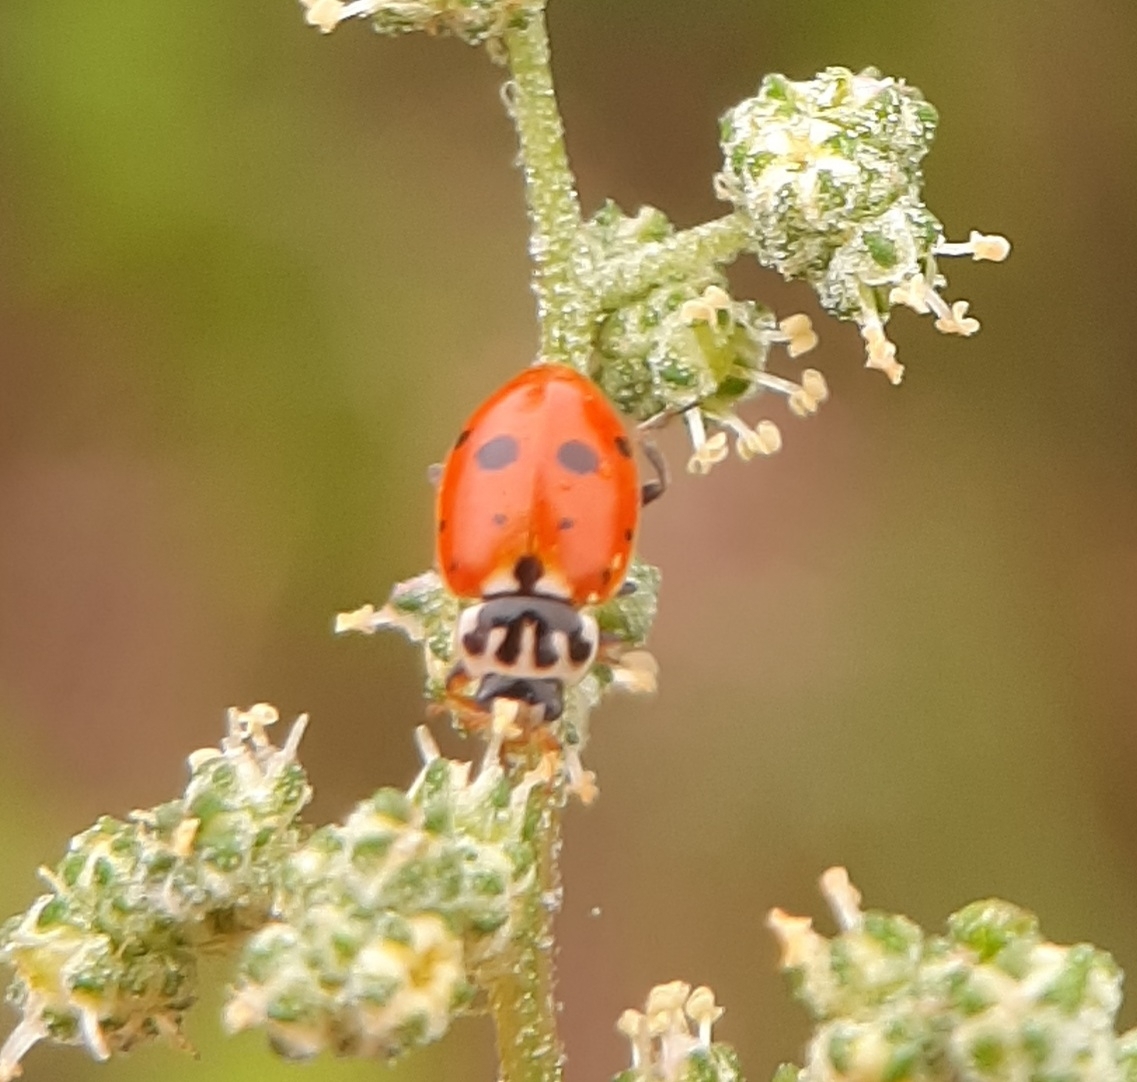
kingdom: Animalia
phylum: Arthropoda
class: Insecta
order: Coleoptera
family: Coccinellidae
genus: Hippodamia
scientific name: Hippodamia variegata
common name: Ladybird beetle
